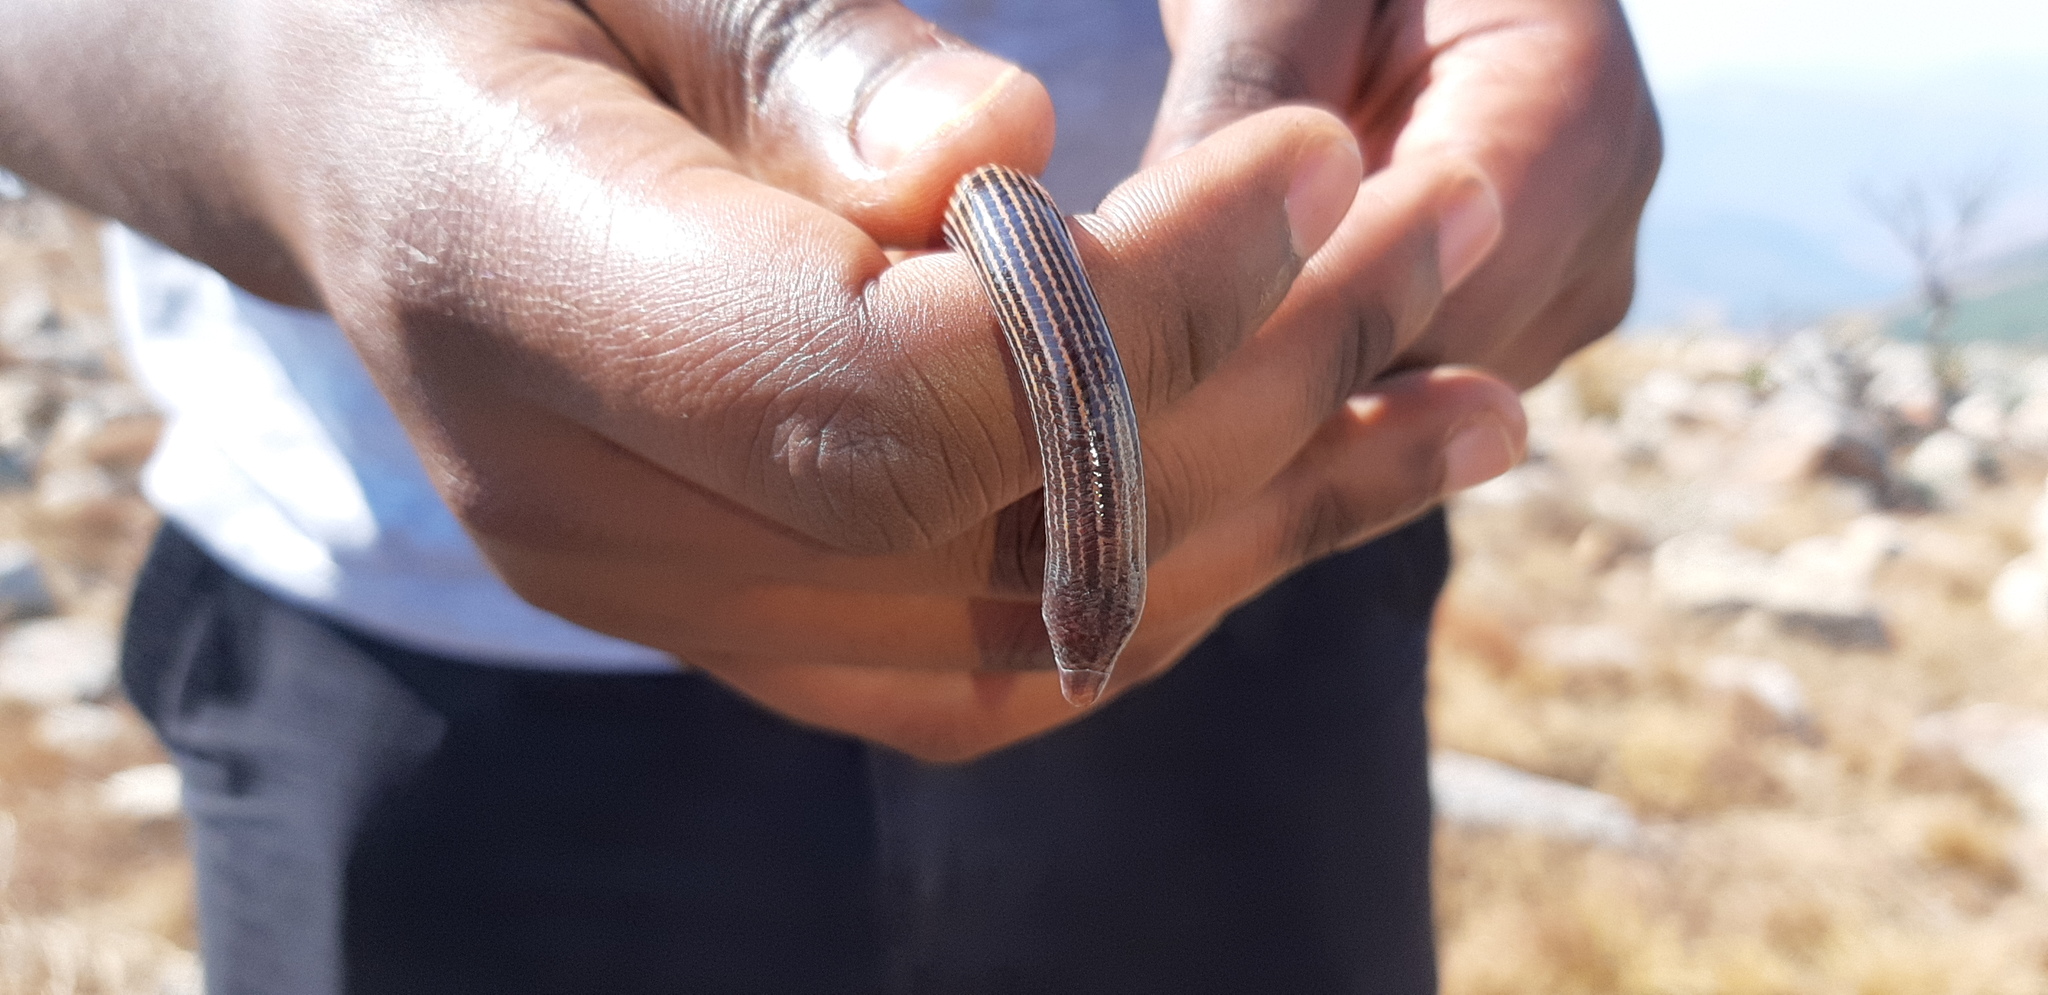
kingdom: Animalia
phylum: Chordata
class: Squamata
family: Scincidae
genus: Acontias
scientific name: Acontias rieppeli
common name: Woodbush legless skink
